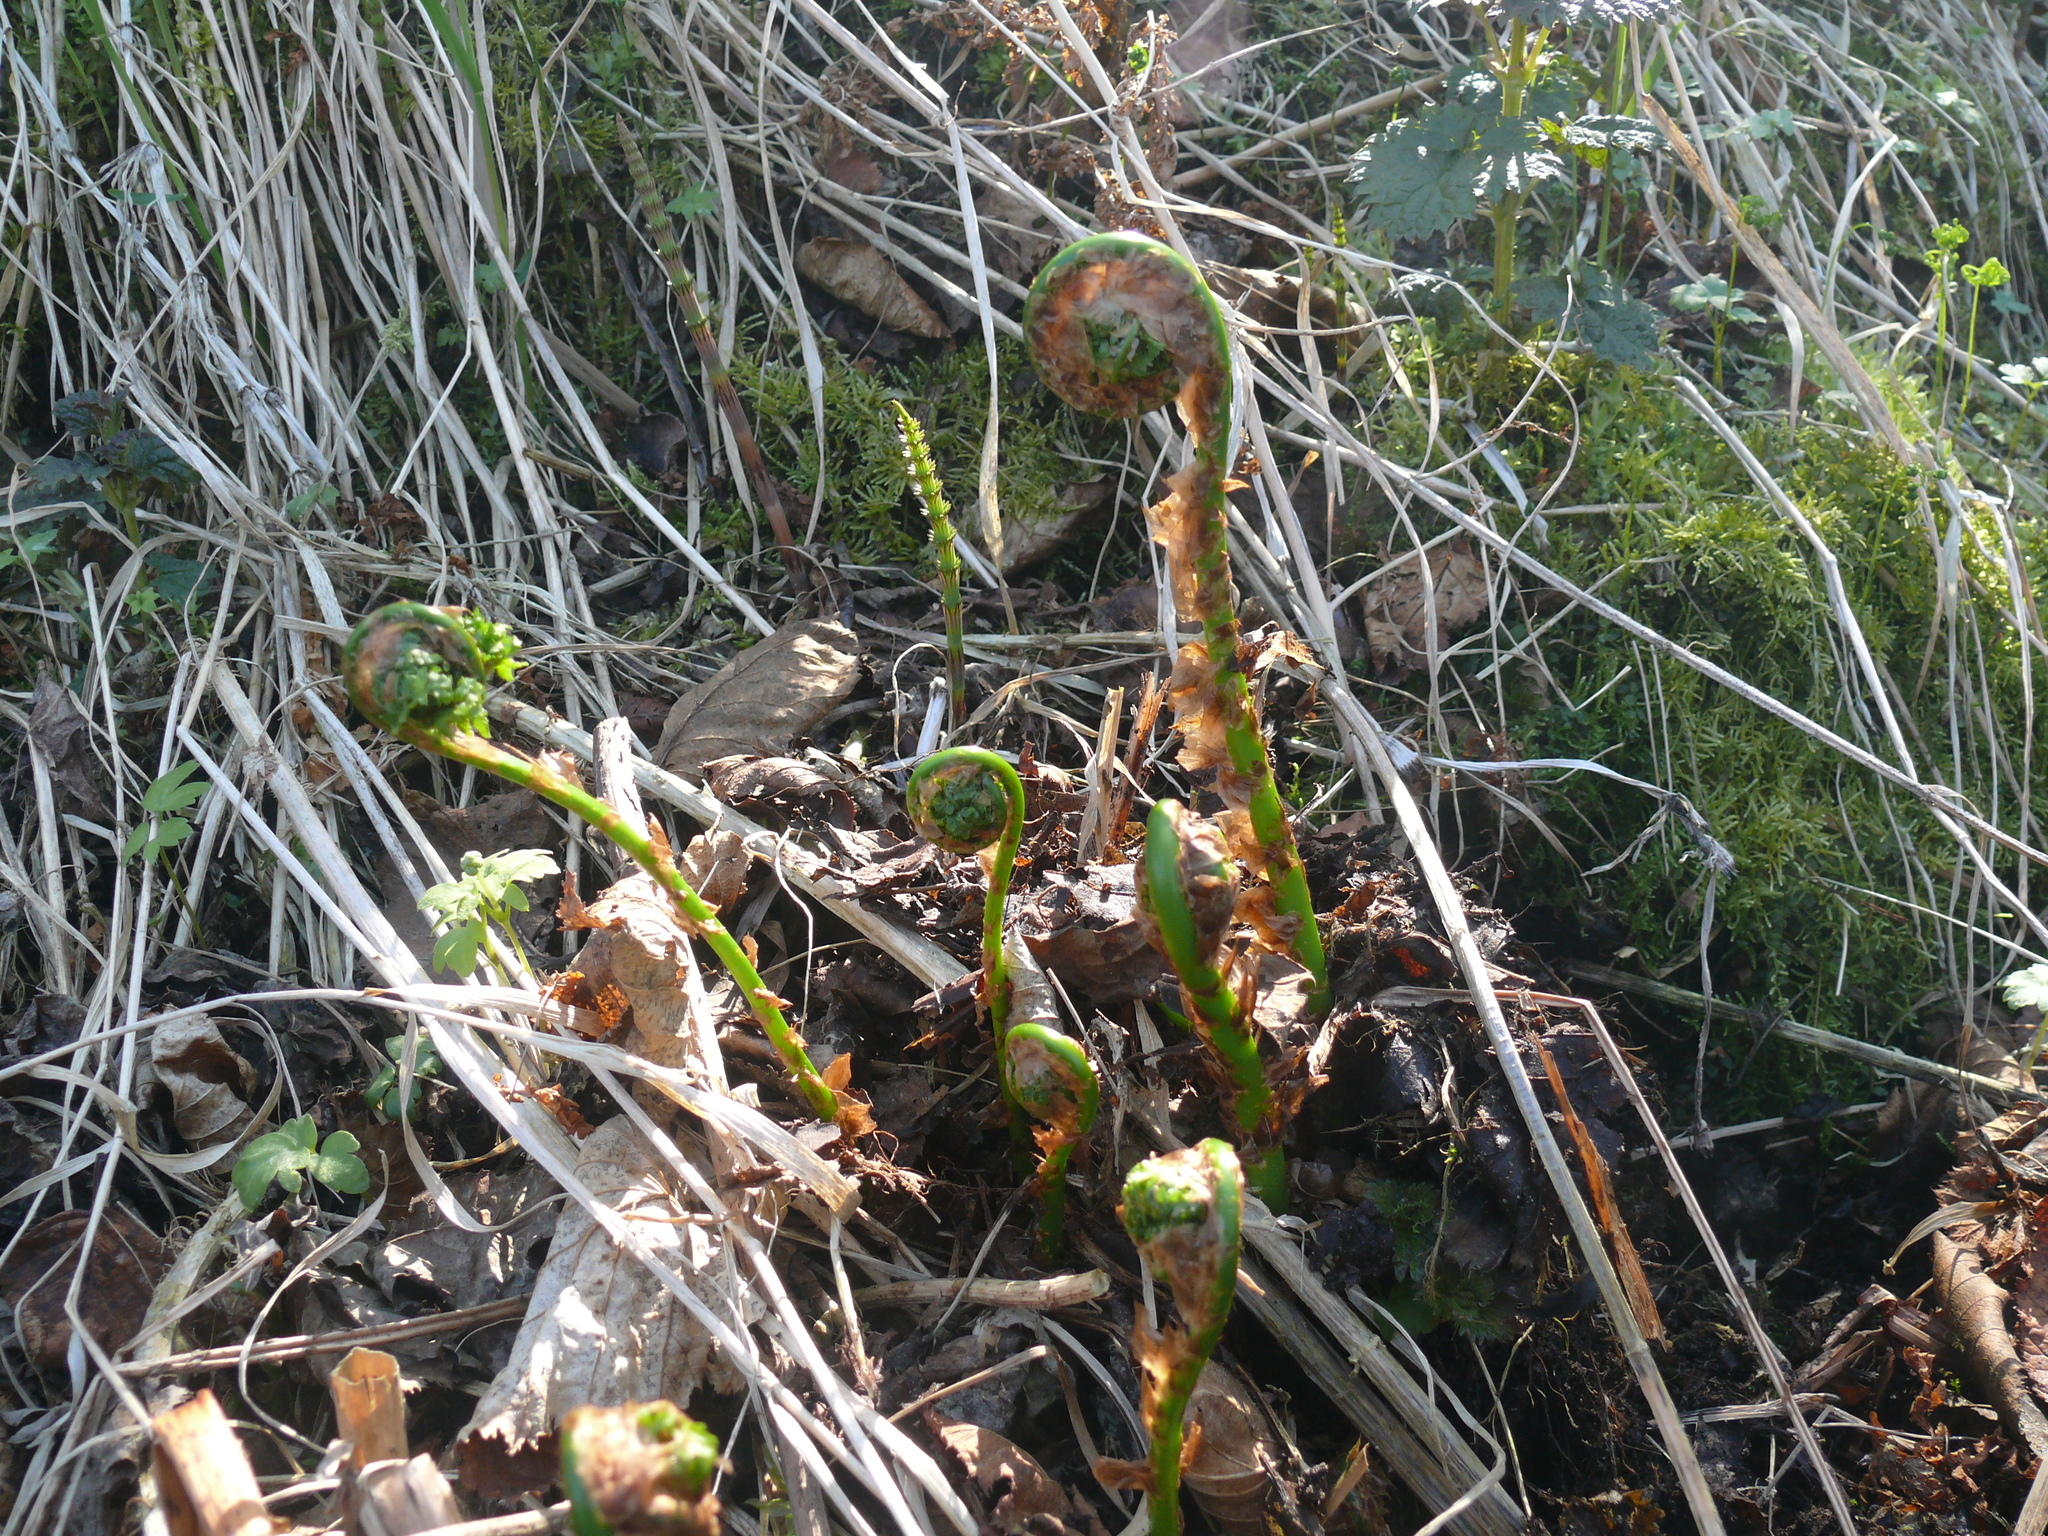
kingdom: Plantae
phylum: Tracheophyta
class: Polypodiopsida
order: Polypodiales
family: Dryopteridaceae
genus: Dryopteris
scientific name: Dryopteris expansa
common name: Northern buckler fern
